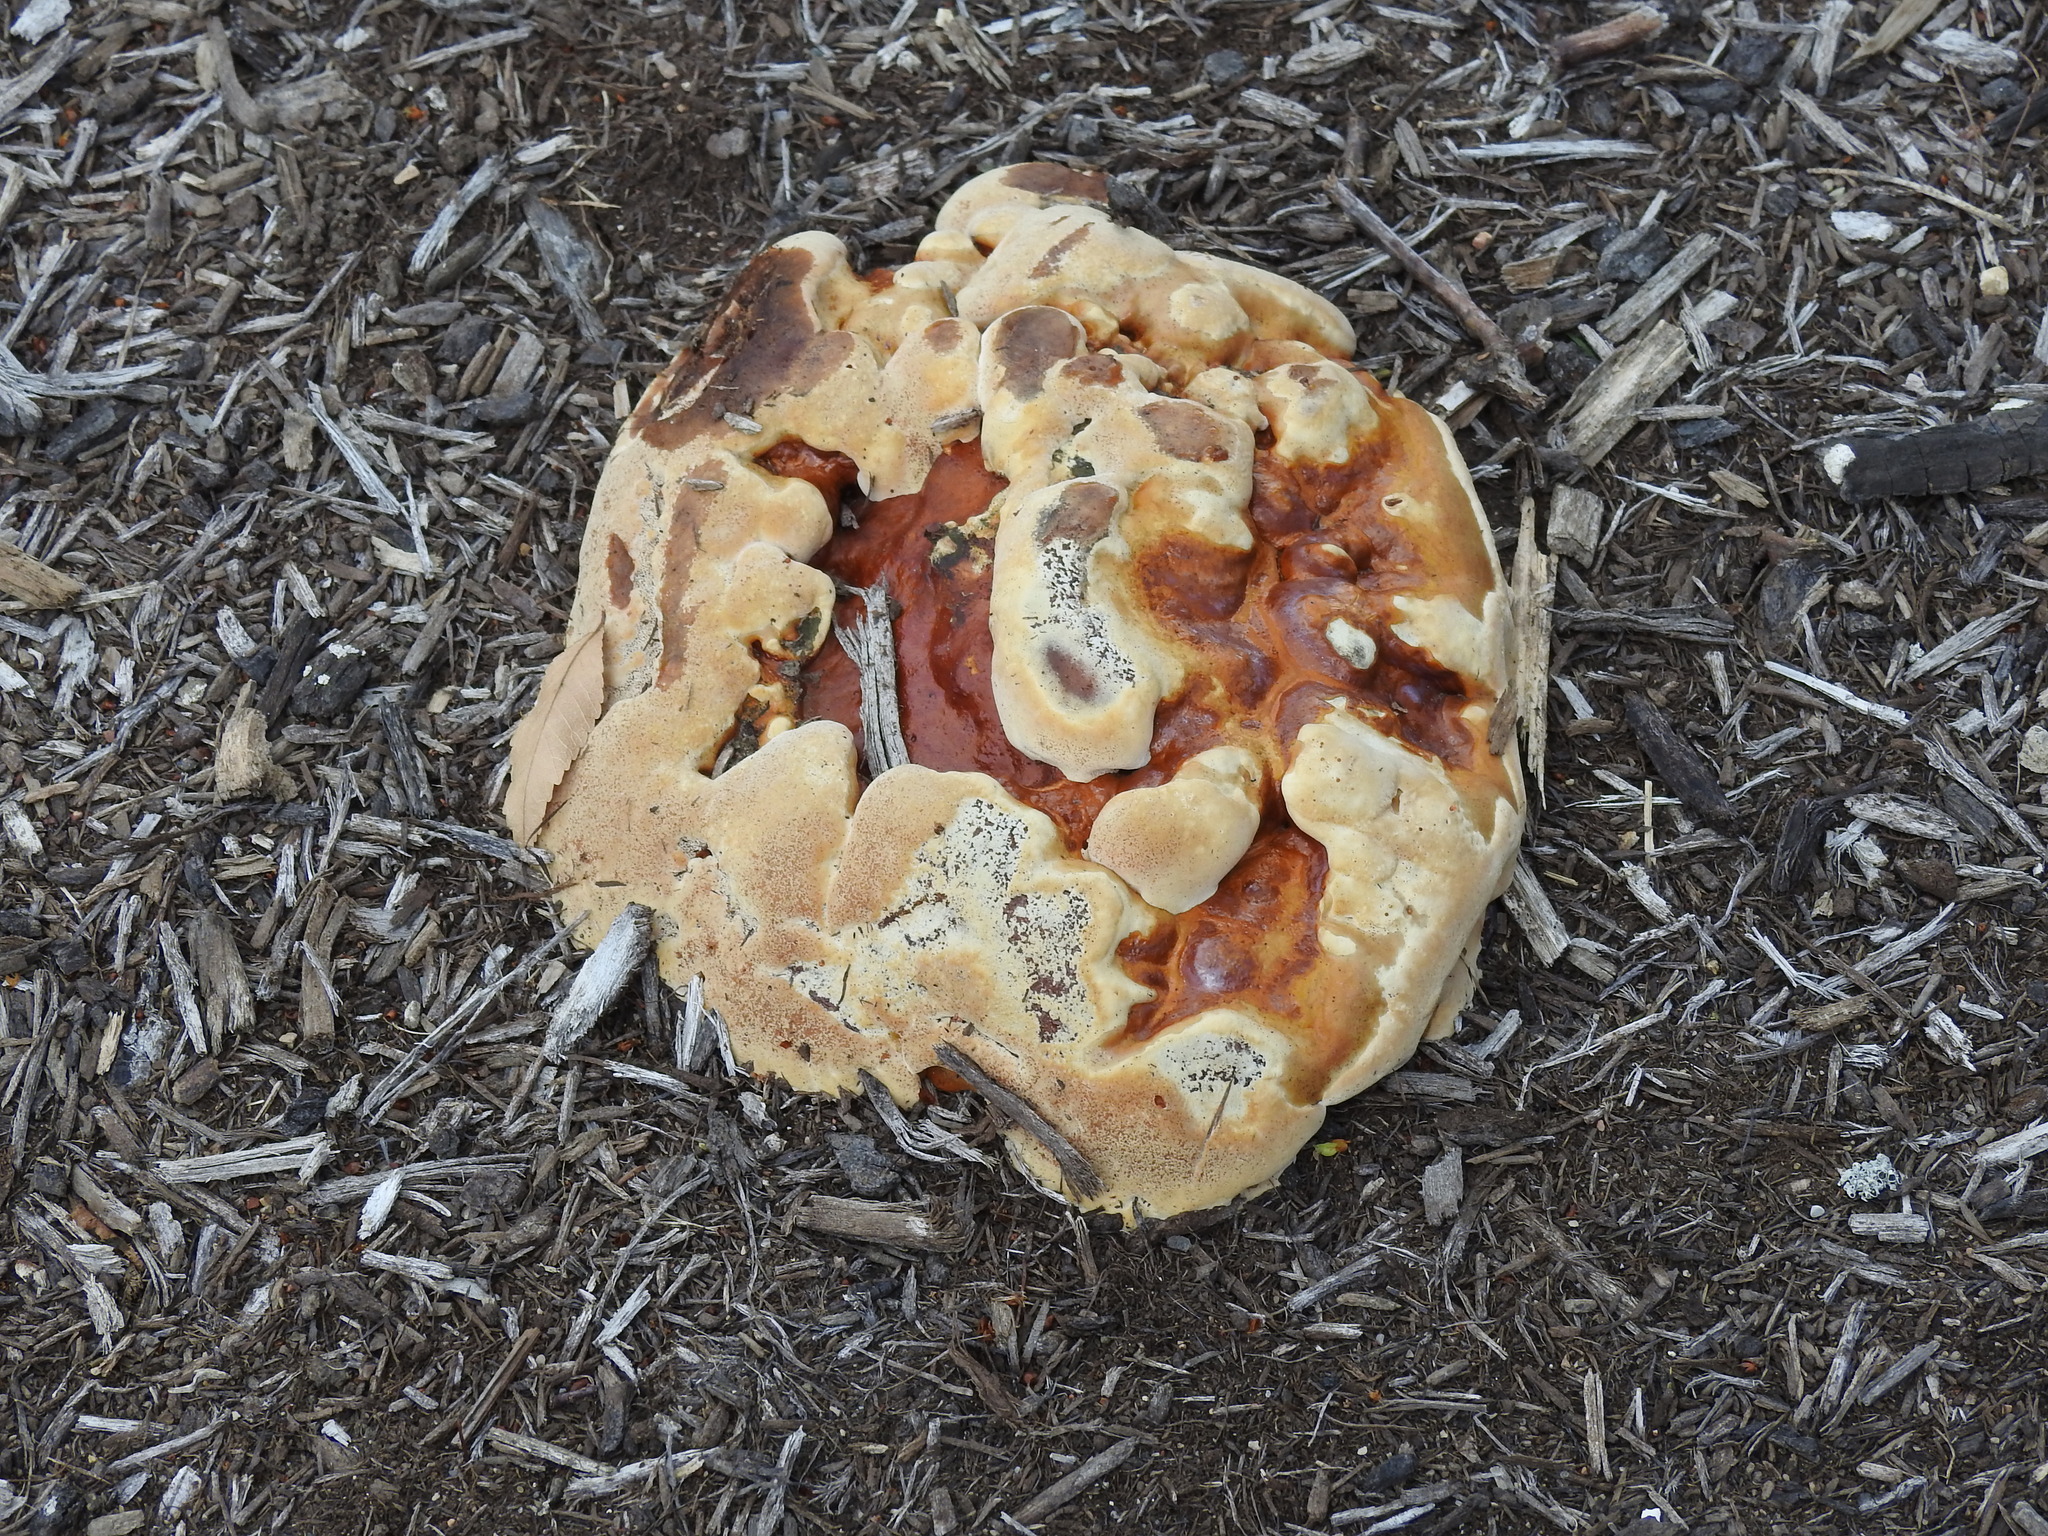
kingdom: Fungi
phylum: Basidiomycota
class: Agaricomycetes
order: Polyporales
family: Polyporaceae
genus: Ganoderma
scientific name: Ganoderma resinaceum
